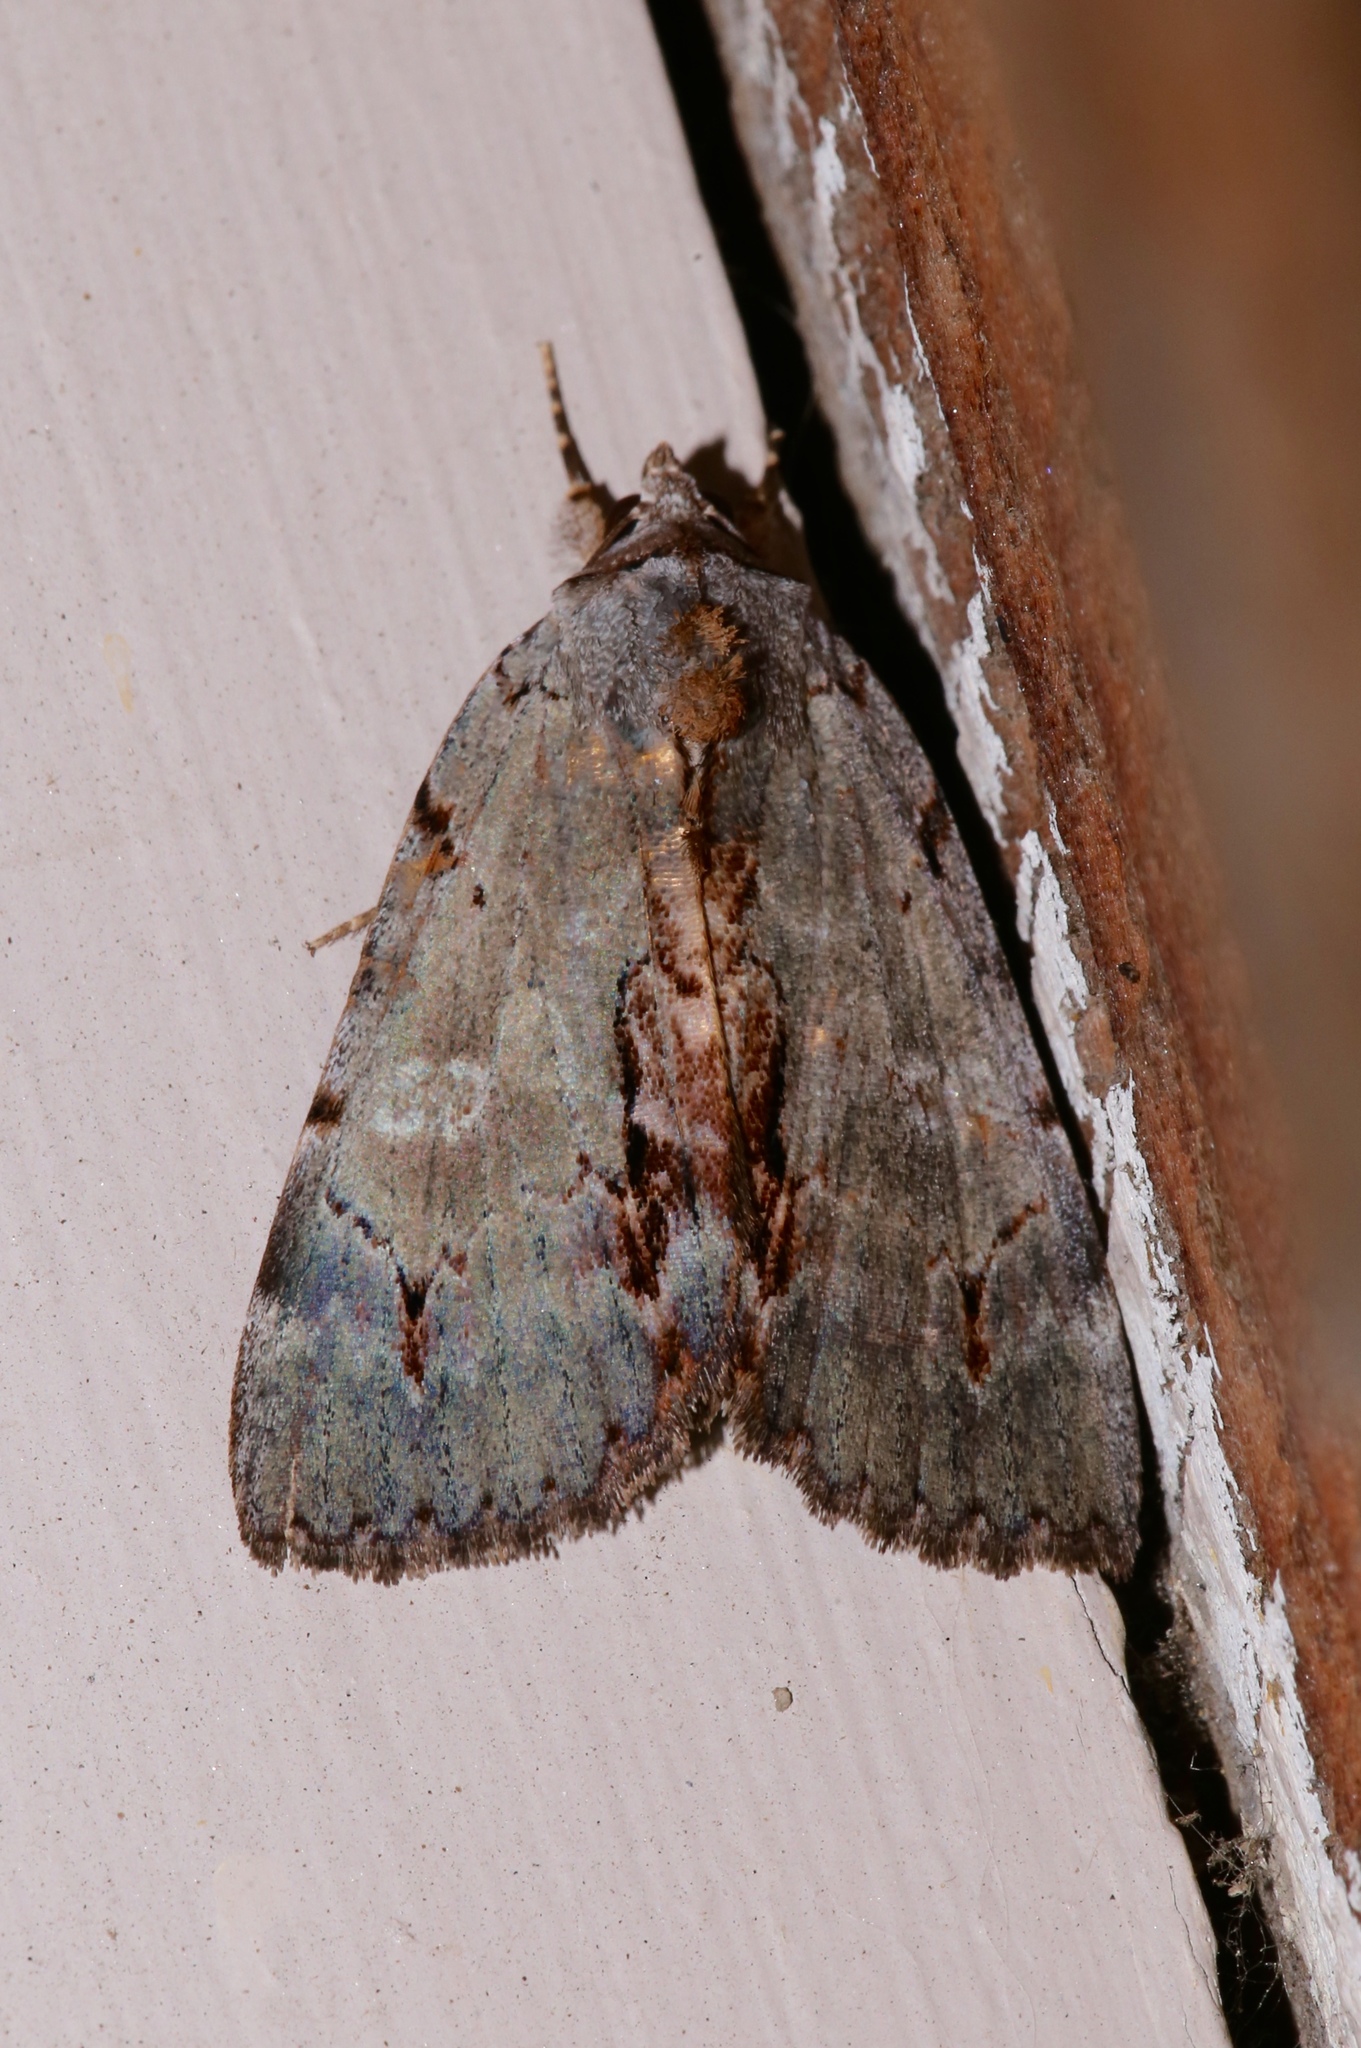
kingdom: Animalia
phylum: Arthropoda
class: Insecta
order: Lepidoptera
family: Erebidae
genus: Catocala
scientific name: Catocala grynea
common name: Woody underwing
